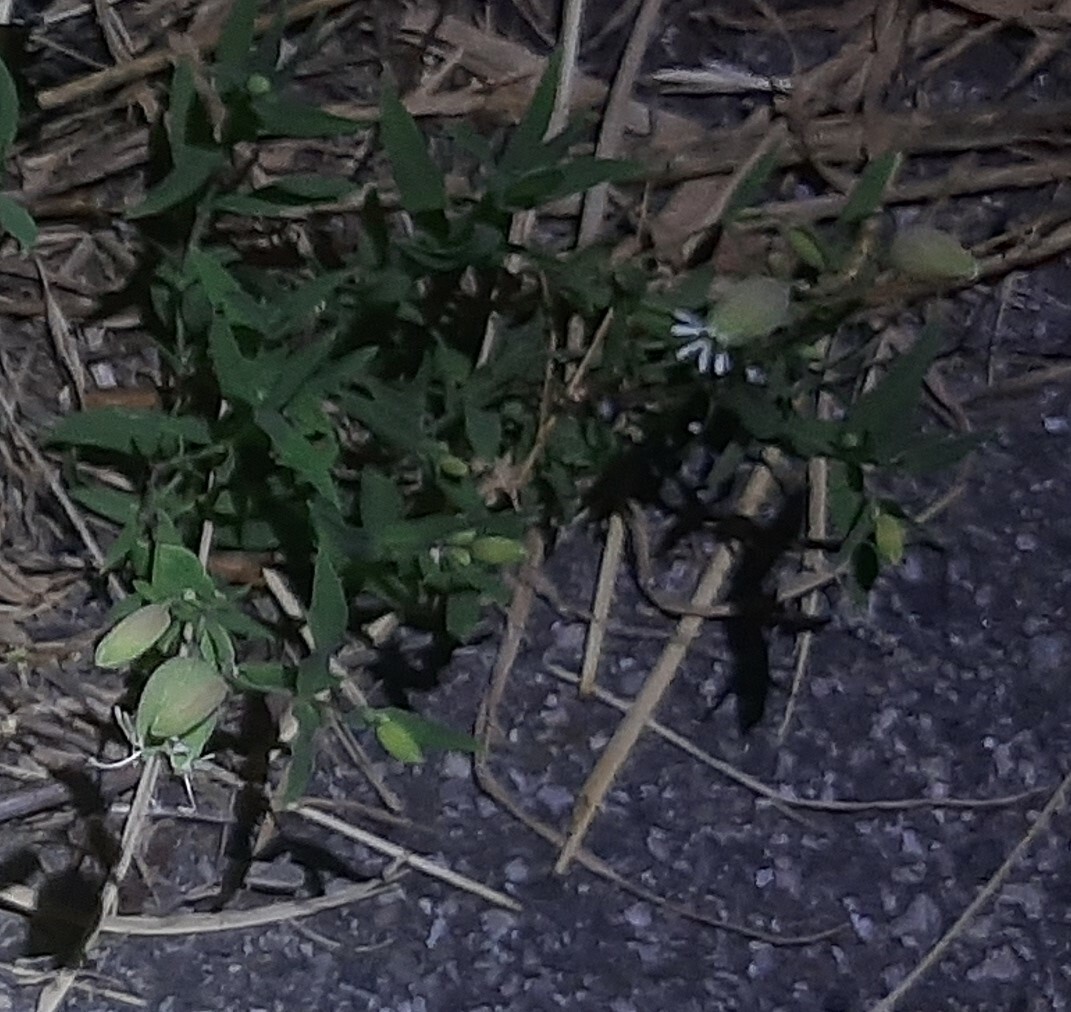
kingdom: Plantae
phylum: Tracheophyta
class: Magnoliopsida
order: Caryophyllales
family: Caryophyllaceae
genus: Silene
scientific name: Silene vulgaris
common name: Bladder campion
